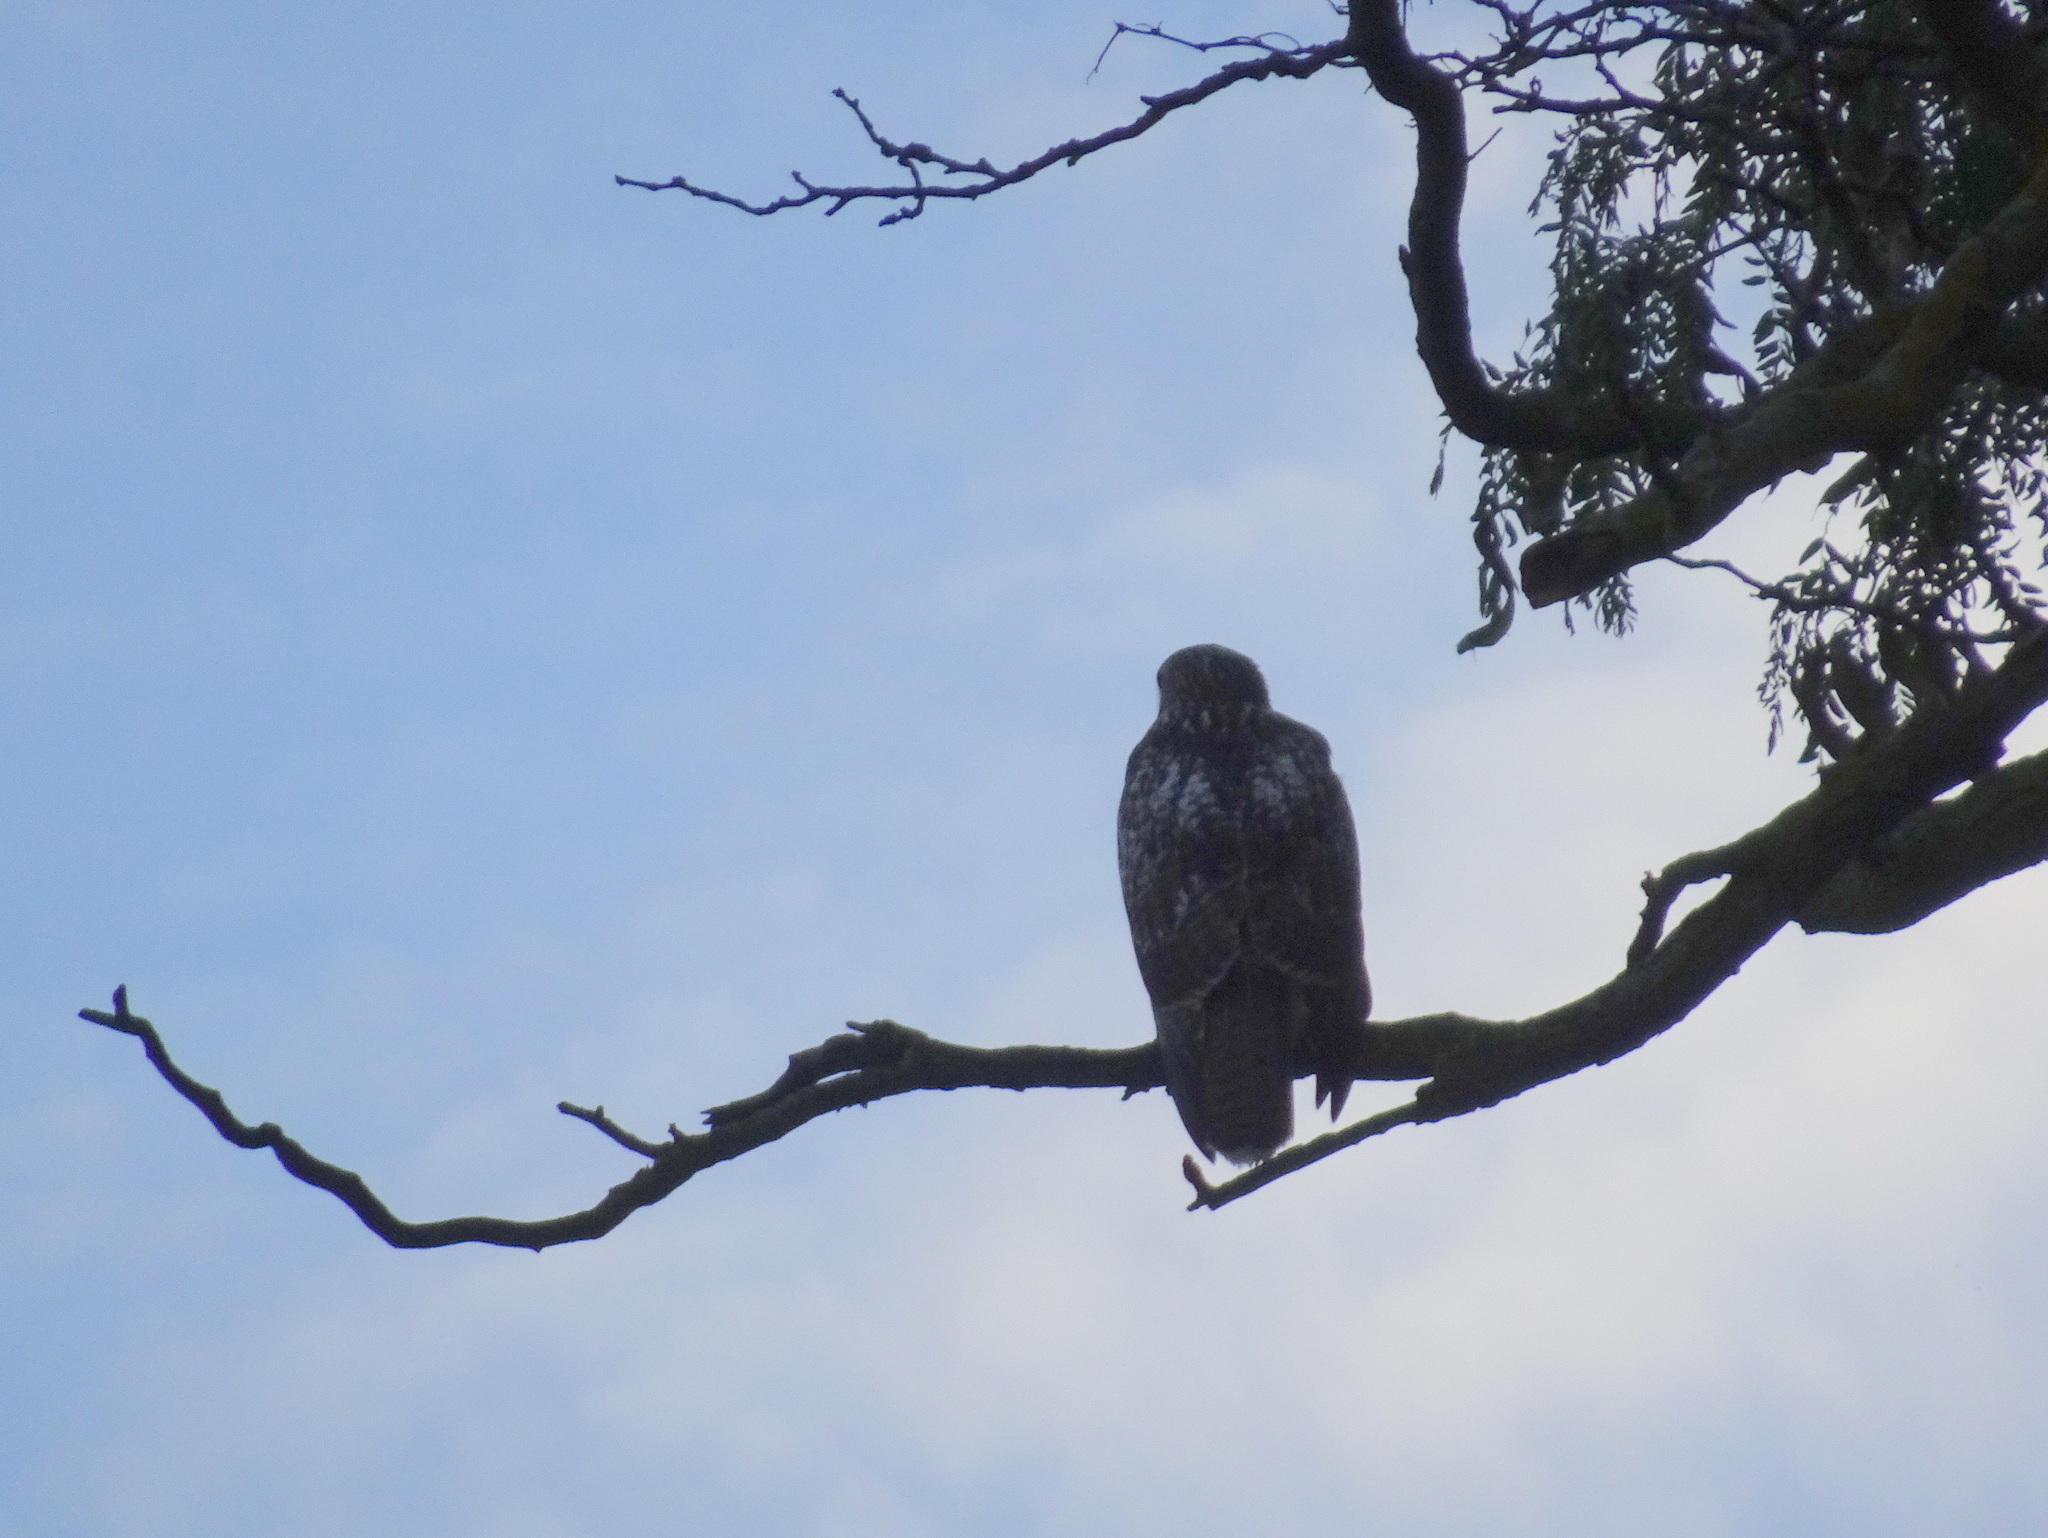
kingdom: Animalia
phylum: Chordata
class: Aves
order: Accipitriformes
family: Accipitridae
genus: Buteo
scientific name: Buteo jamaicensis
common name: Red-tailed hawk
